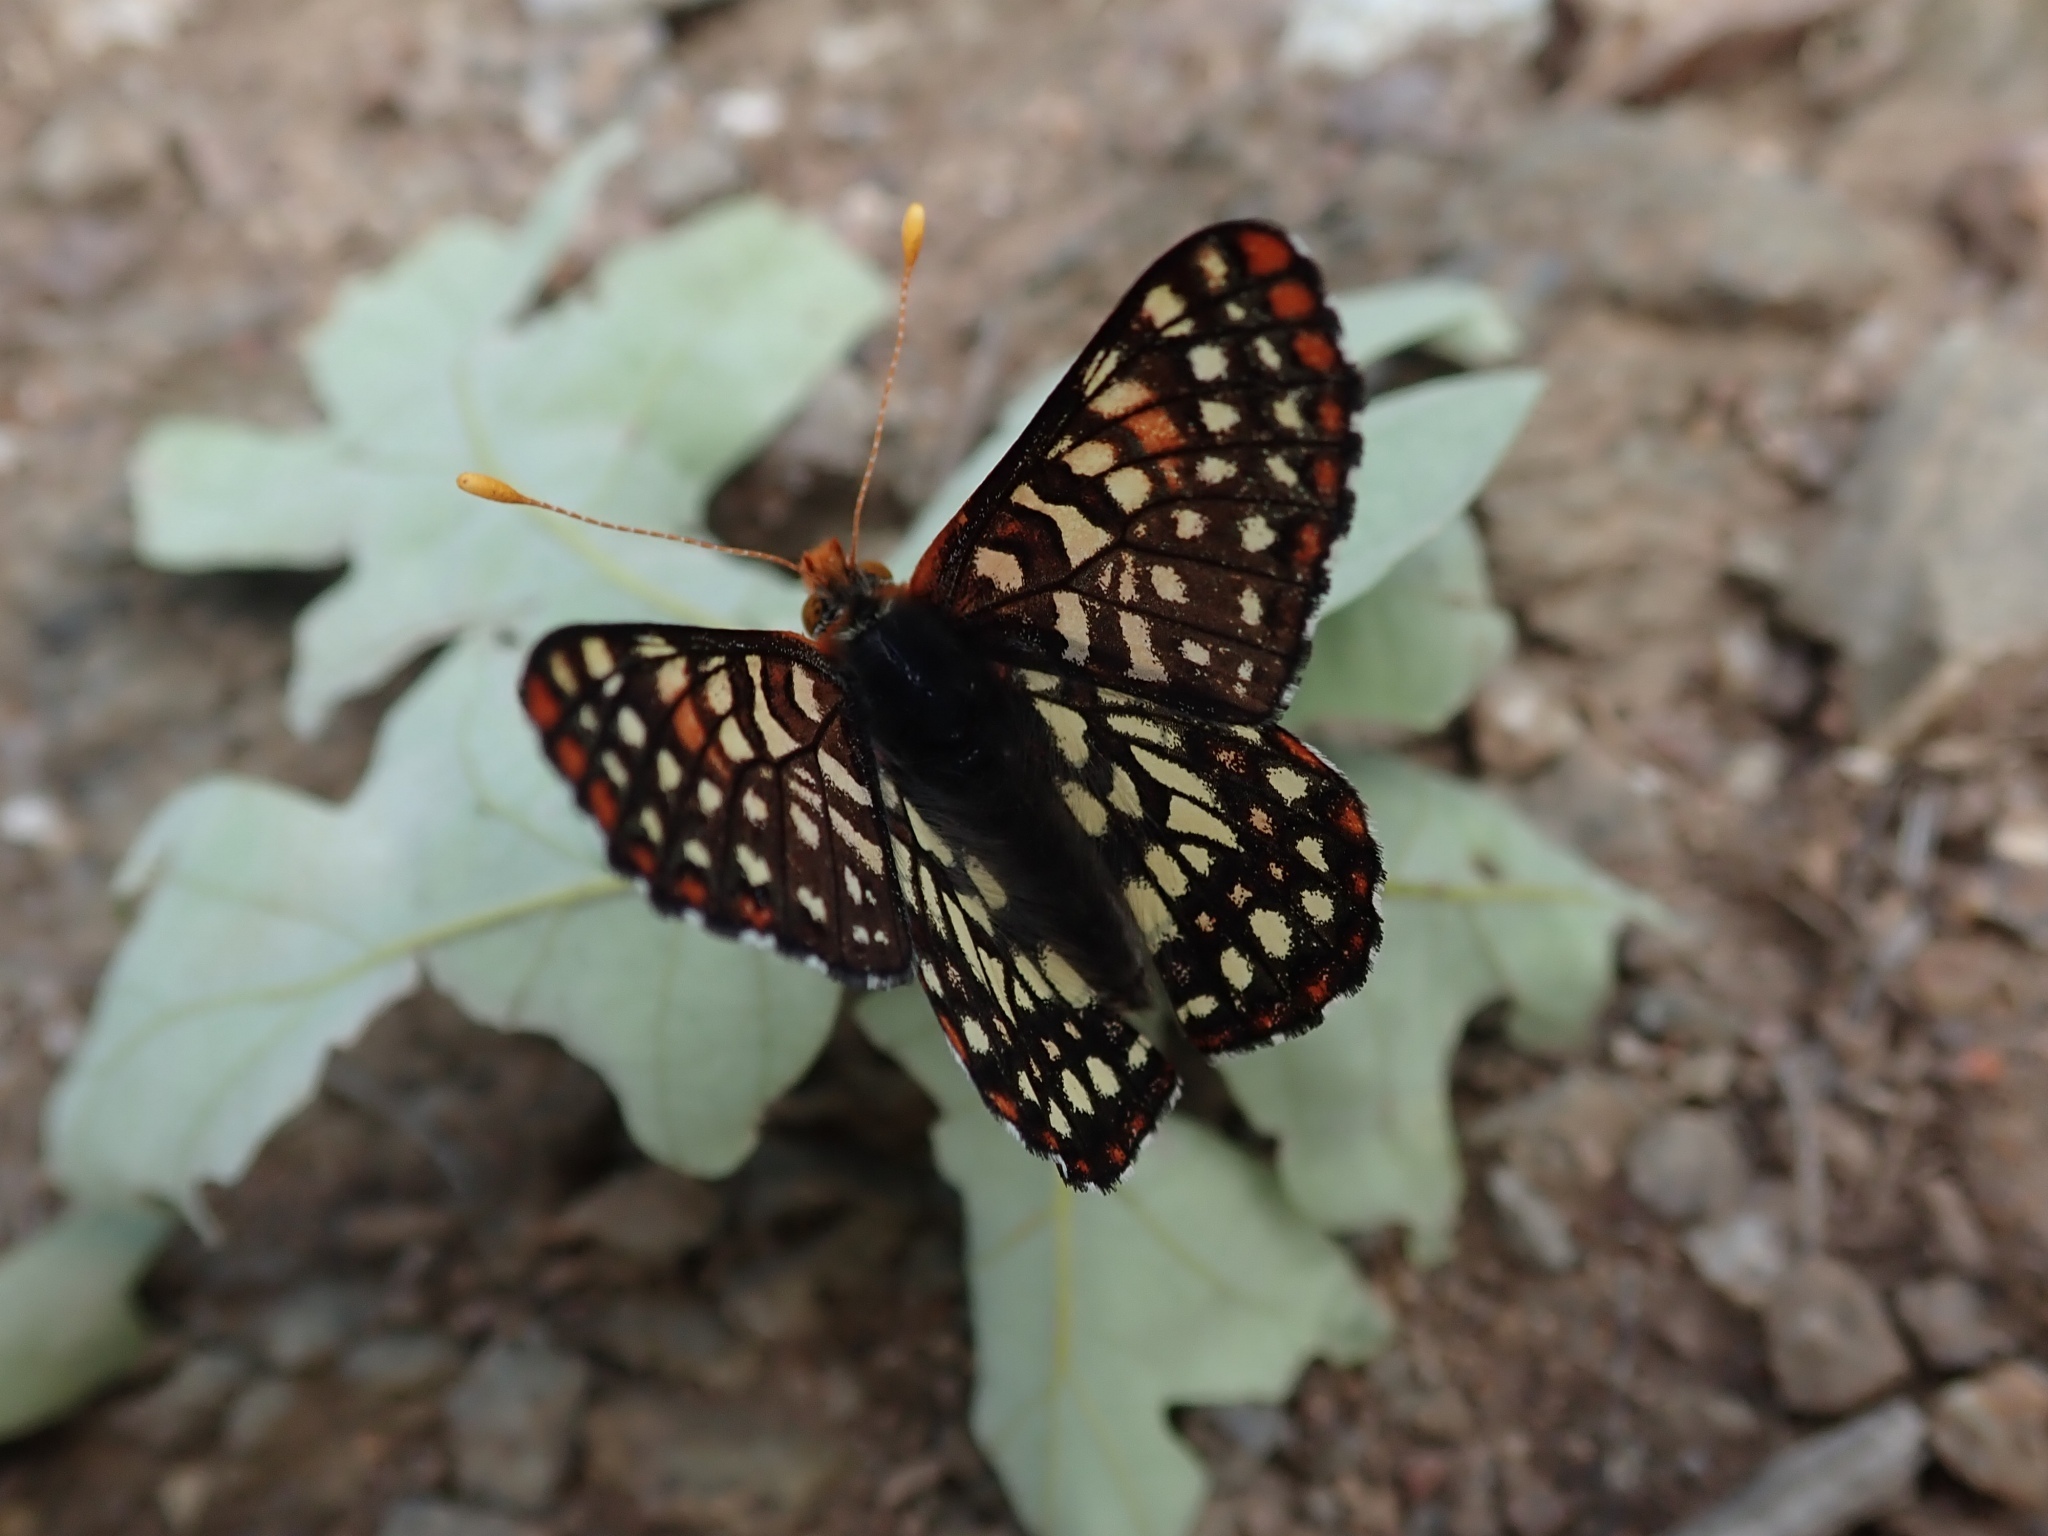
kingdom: Animalia
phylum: Arthropoda
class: Insecta
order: Lepidoptera
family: Nymphalidae
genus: Occidryas
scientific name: Occidryas chalcedona
